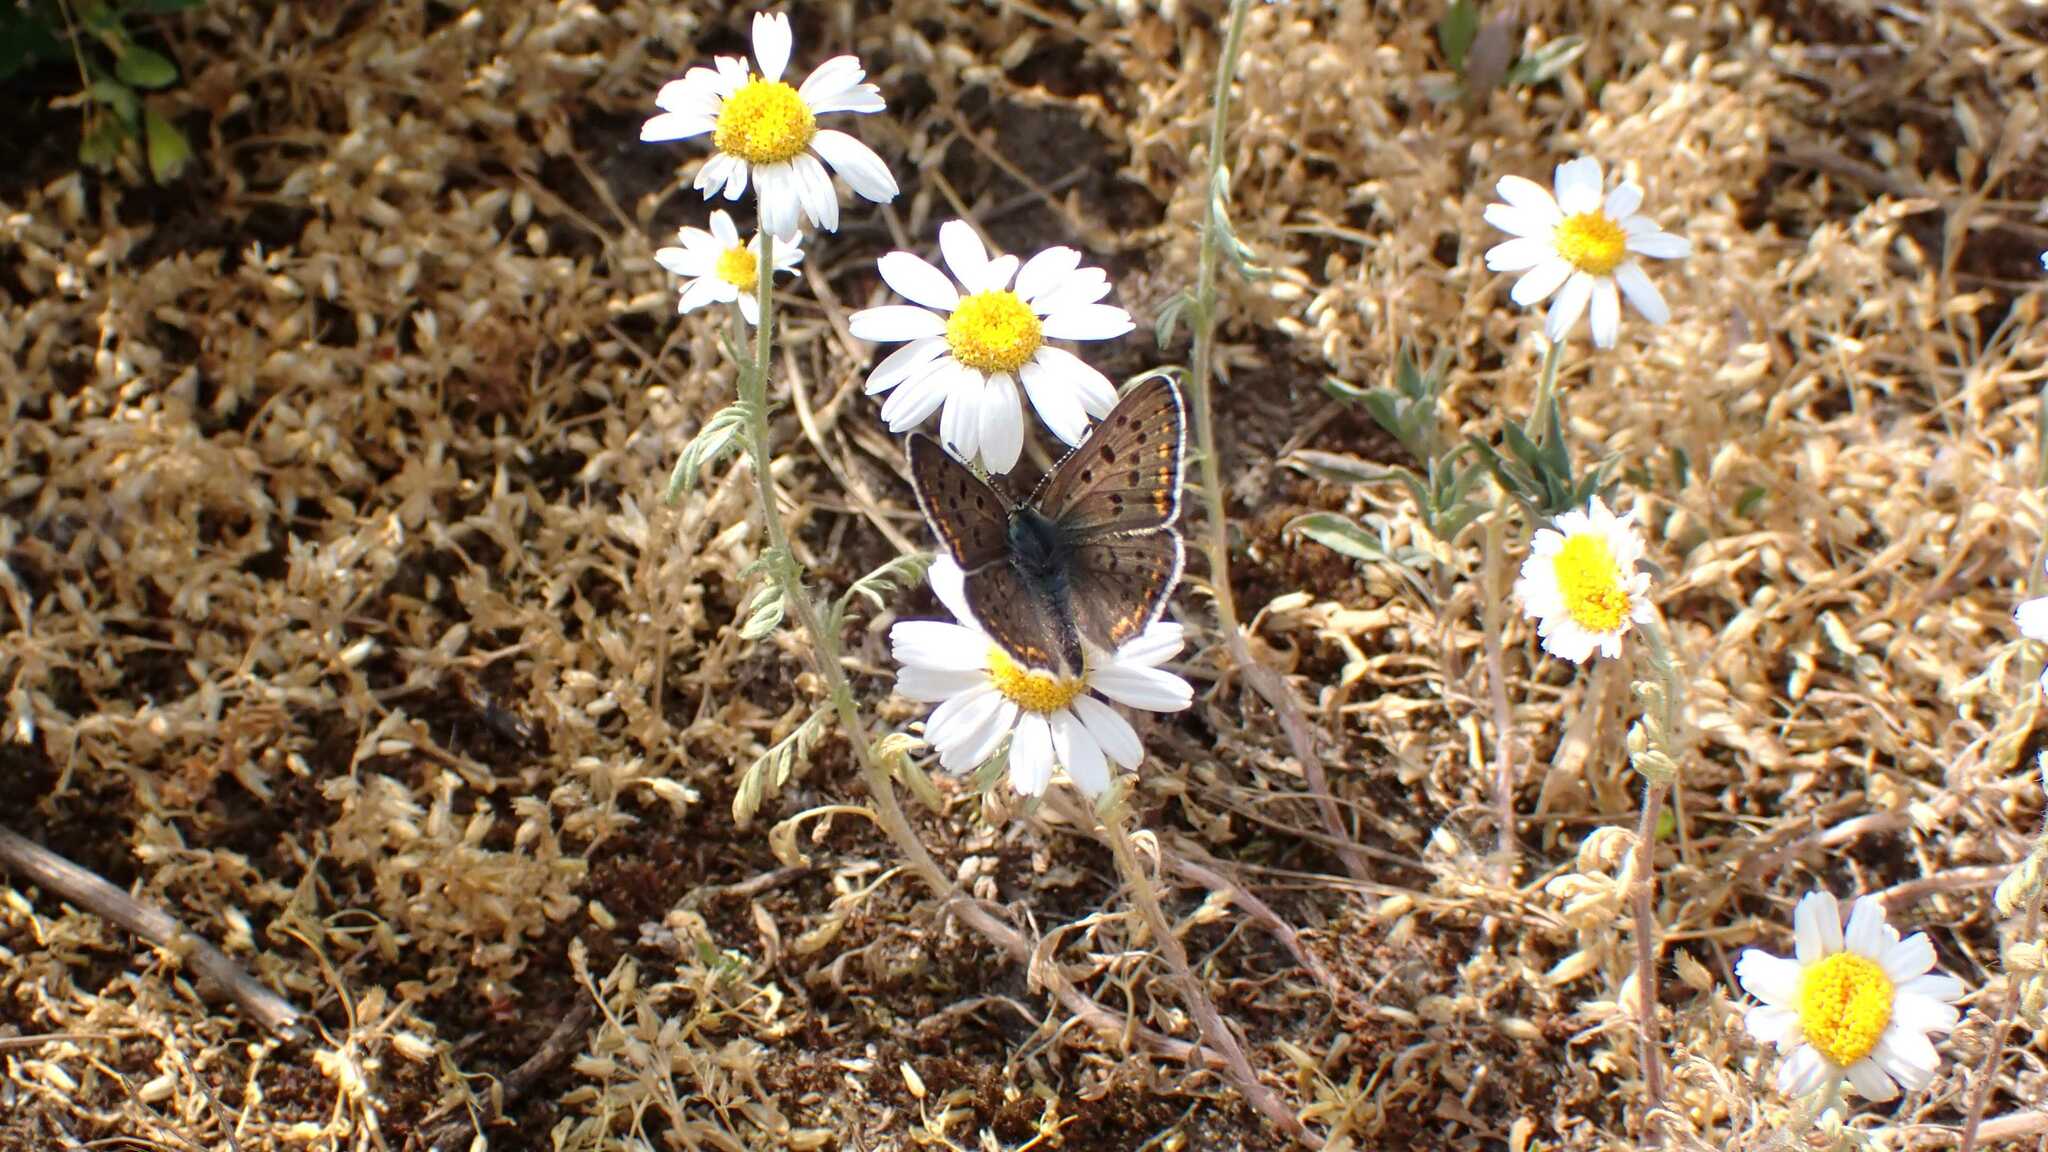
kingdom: Animalia
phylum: Arthropoda
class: Insecta
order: Lepidoptera
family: Lycaenidae
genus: Loweia
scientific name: Loweia tityrus
